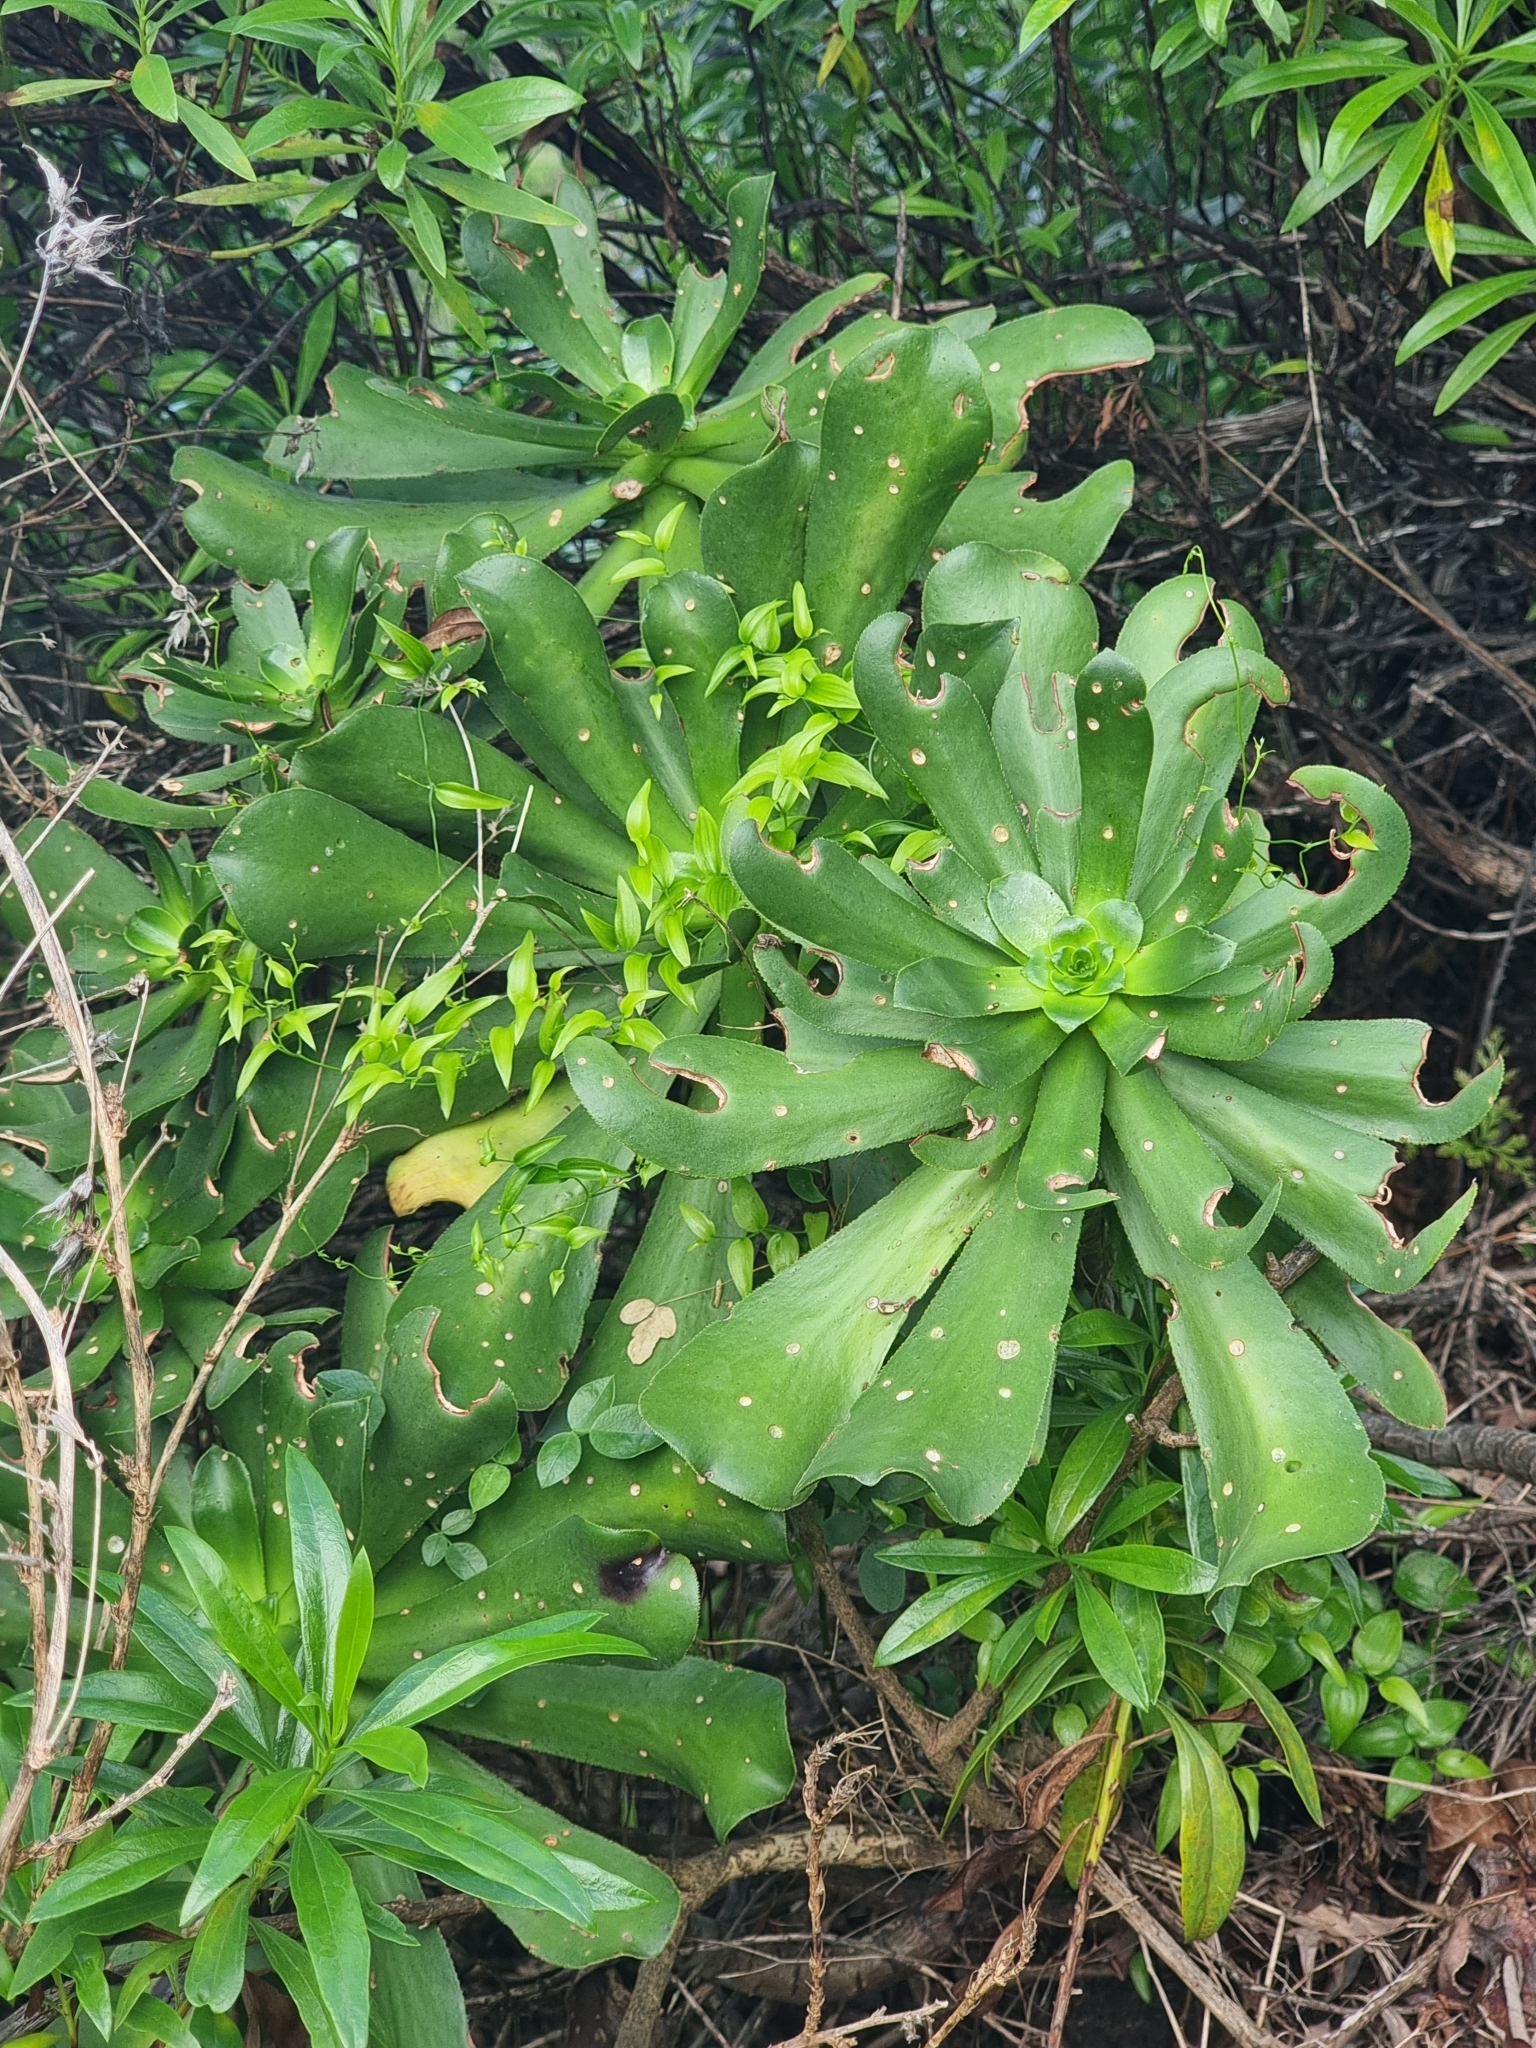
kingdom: Plantae
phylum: Tracheophyta
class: Magnoliopsida
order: Saxifragales
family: Crassulaceae
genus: Aeonium
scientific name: Aeonium glutinosum
